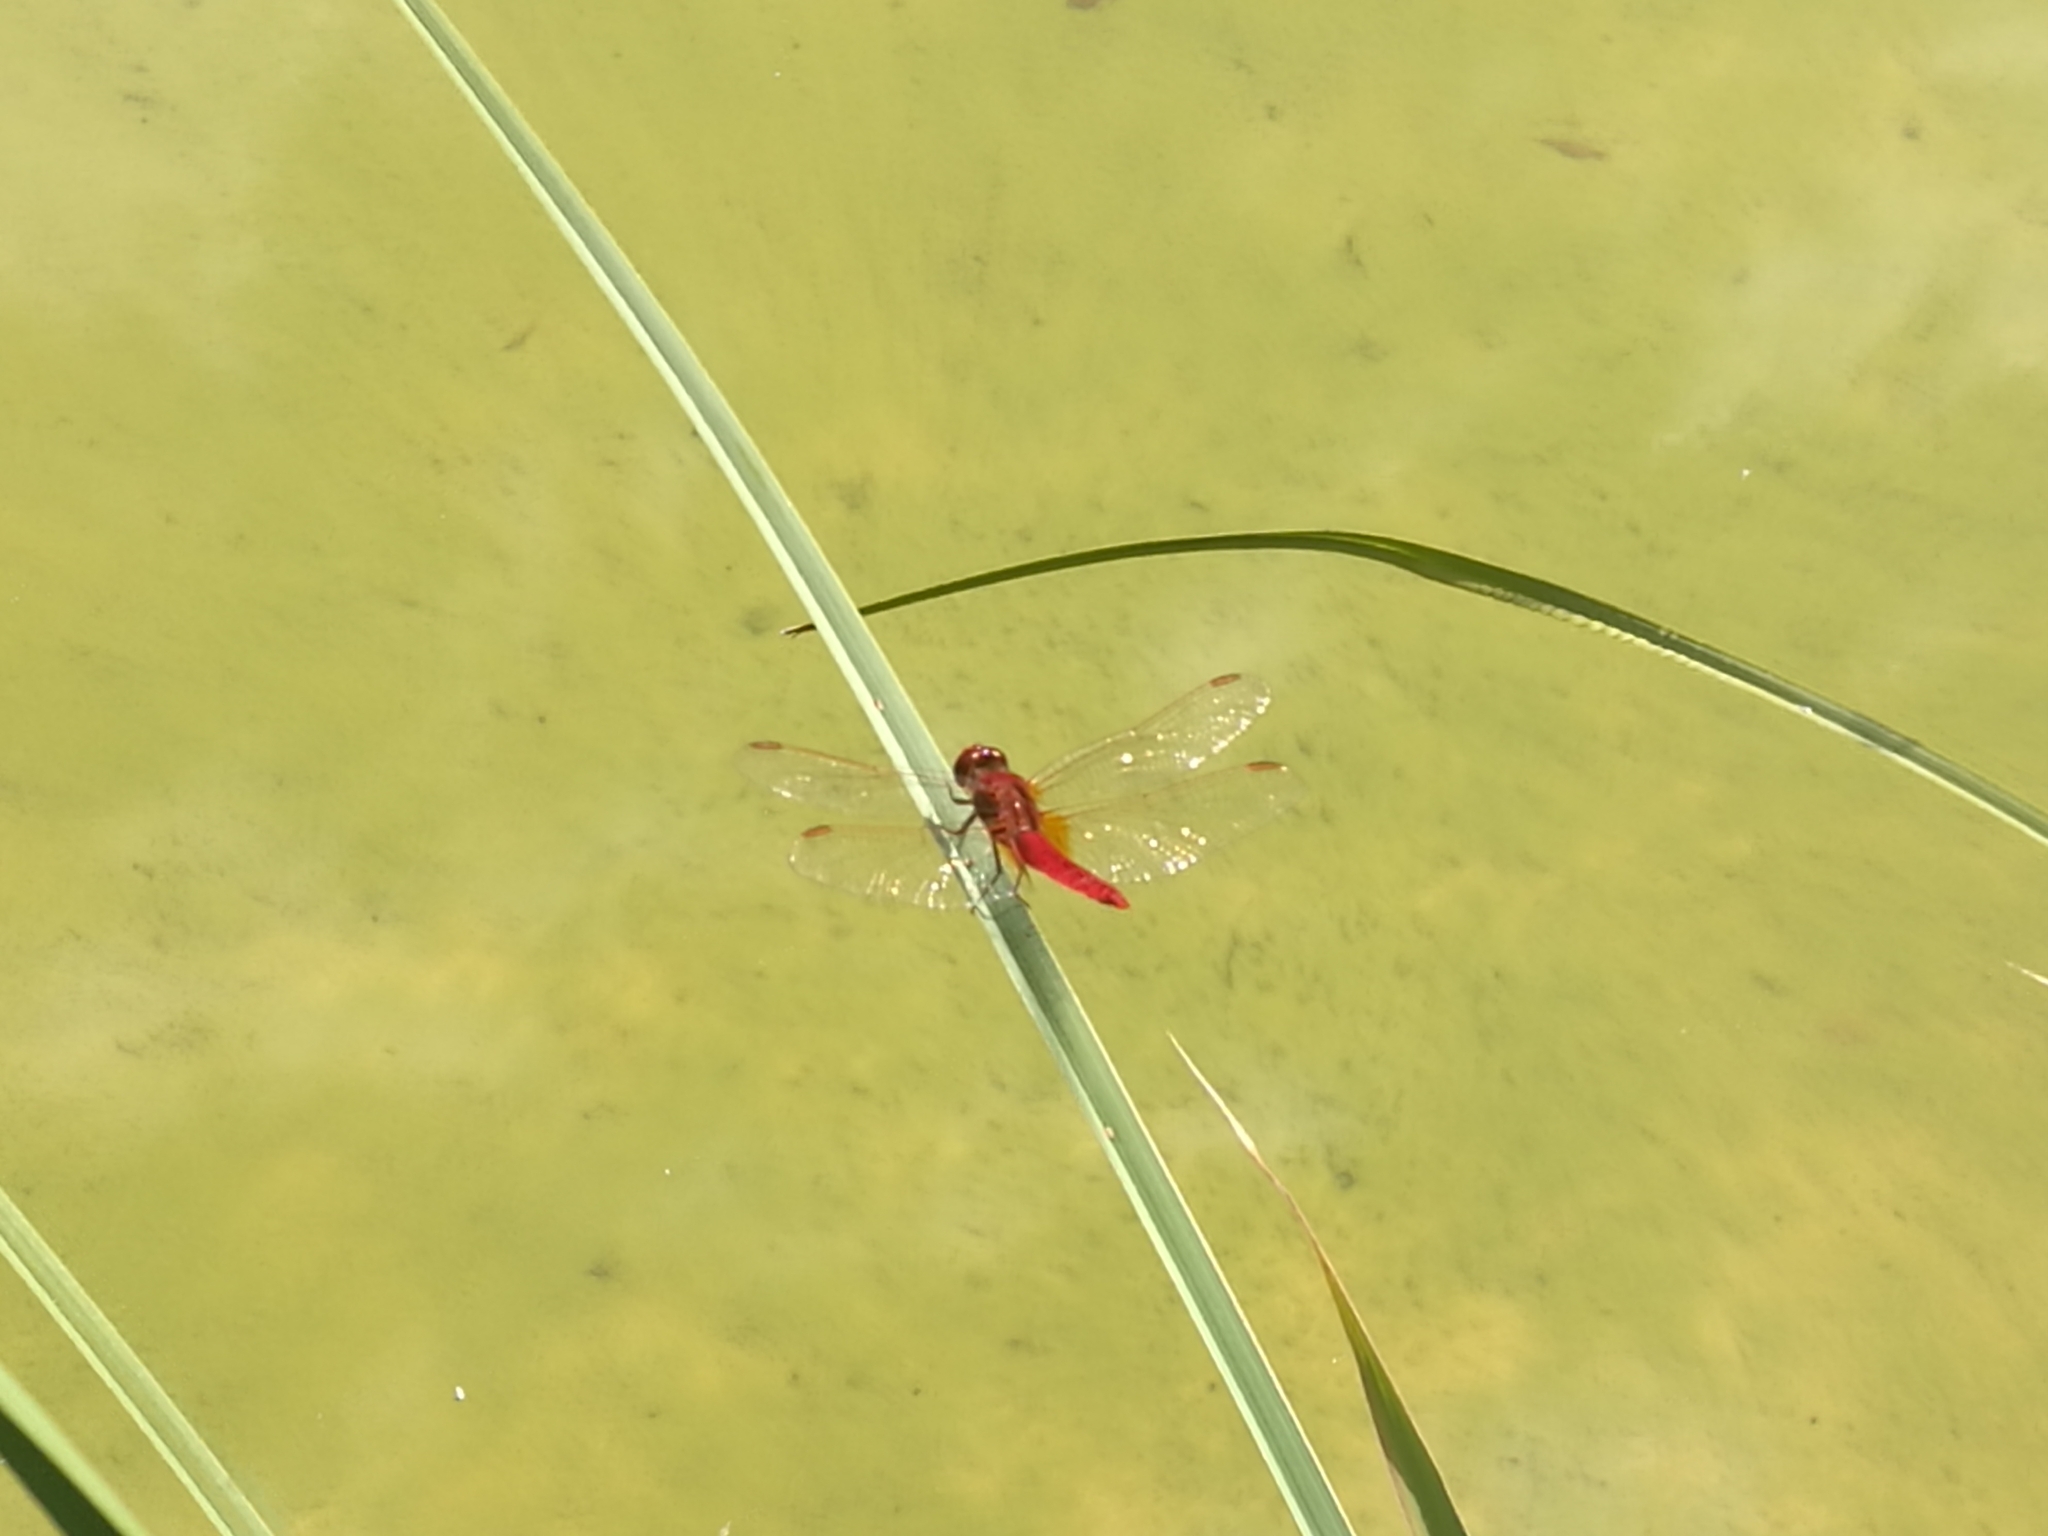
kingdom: Animalia
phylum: Arthropoda
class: Insecta
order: Odonata
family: Libellulidae
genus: Crocothemis
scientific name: Crocothemis erythraea
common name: Scarlet dragonfly
